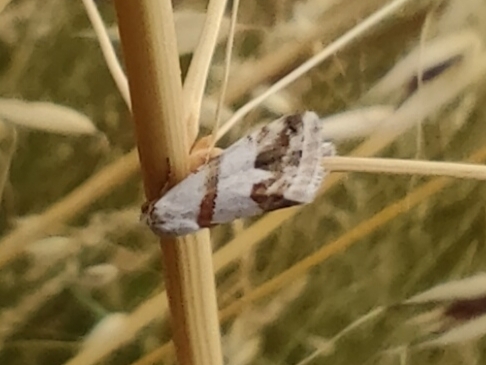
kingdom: Animalia
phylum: Arthropoda
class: Insecta
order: Lepidoptera
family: Noctuidae
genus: Eublemma
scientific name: Eublemma candidana
